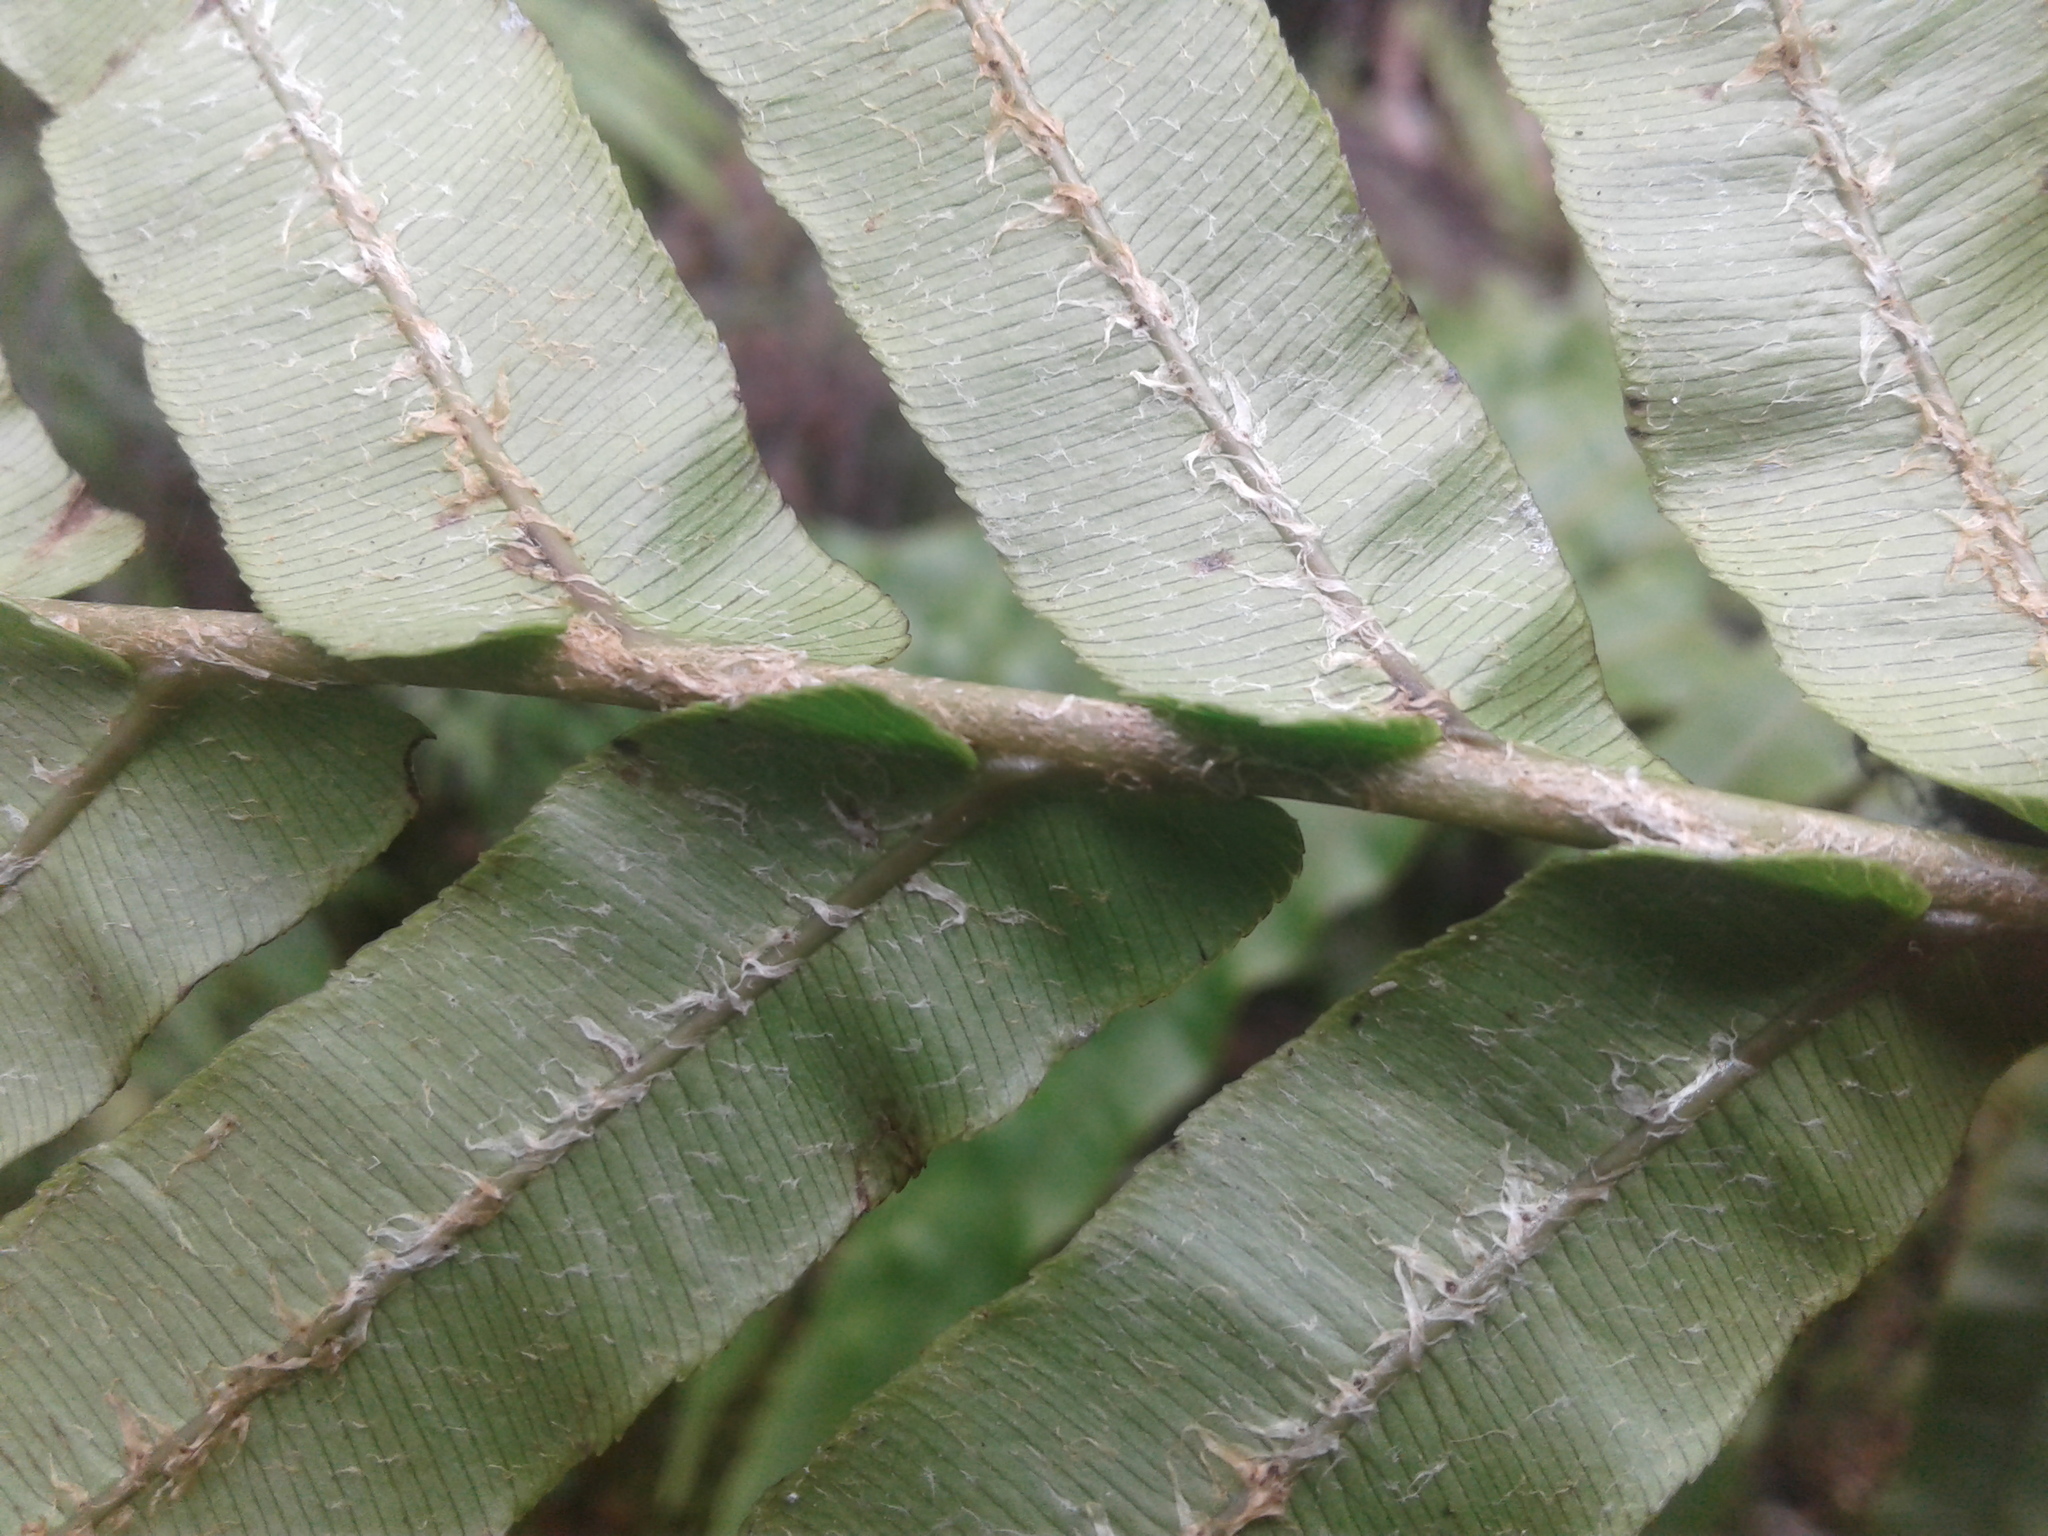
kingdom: Plantae
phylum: Tracheophyta
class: Polypodiopsida
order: Polypodiales
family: Blechnaceae
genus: Parablechnum
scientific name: Parablechnum novae-zelandiae
